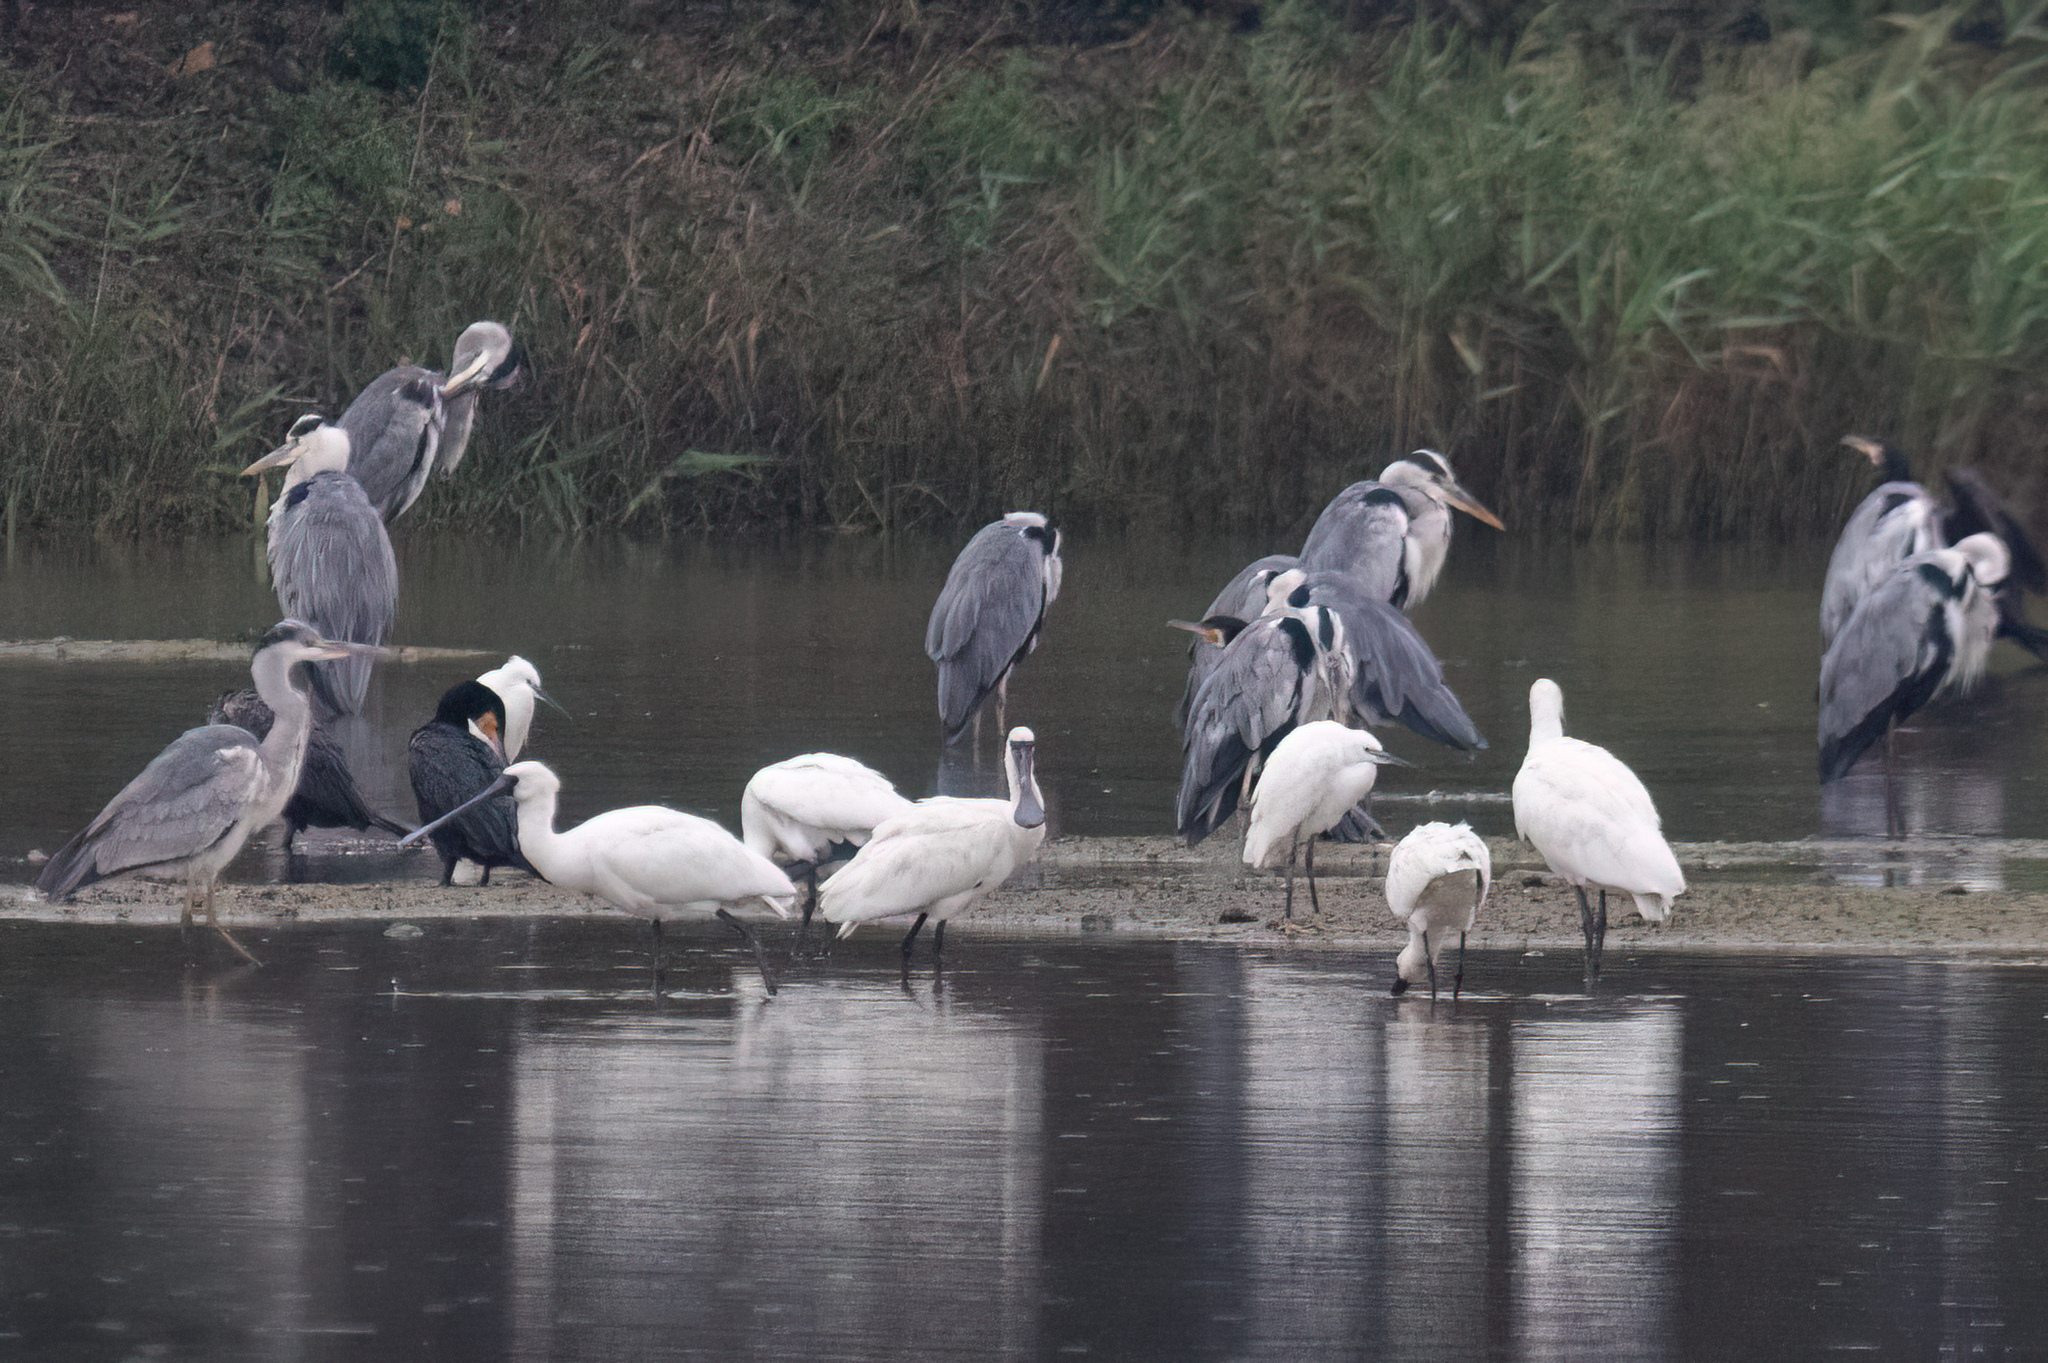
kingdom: Animalia
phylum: Chordata
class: Aves
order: Pelecaniformes
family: Threskiornithidae
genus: Platalea
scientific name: Platalea minor
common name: Black-faced spoonbill
